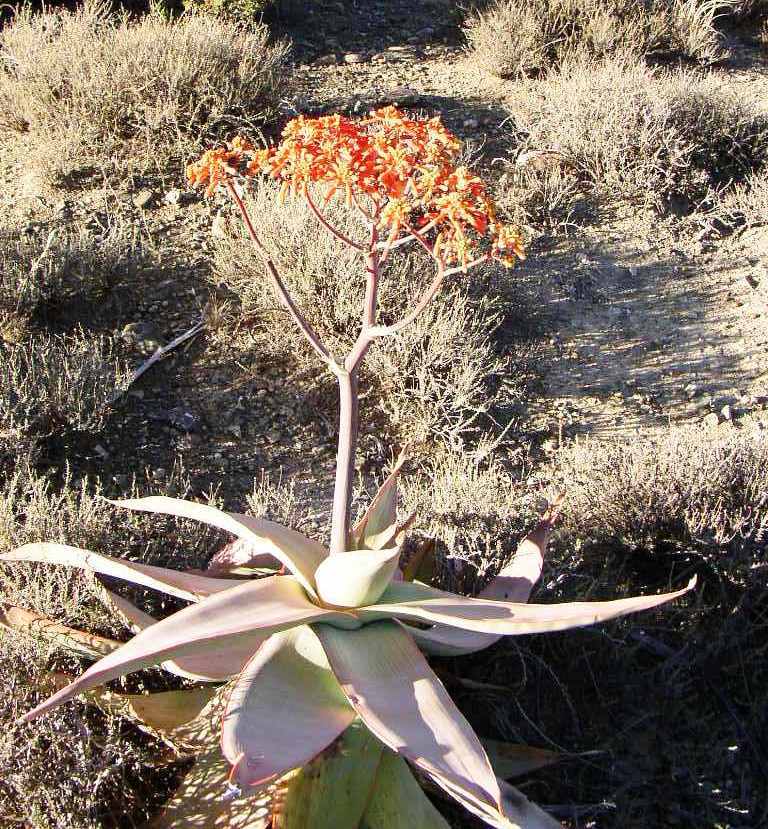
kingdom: Plantae
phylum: Tracheophyta
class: Liliopsida
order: Asparagales
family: Asphodelaceae
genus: Aloe
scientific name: Aloe striata
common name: Coral aloe
